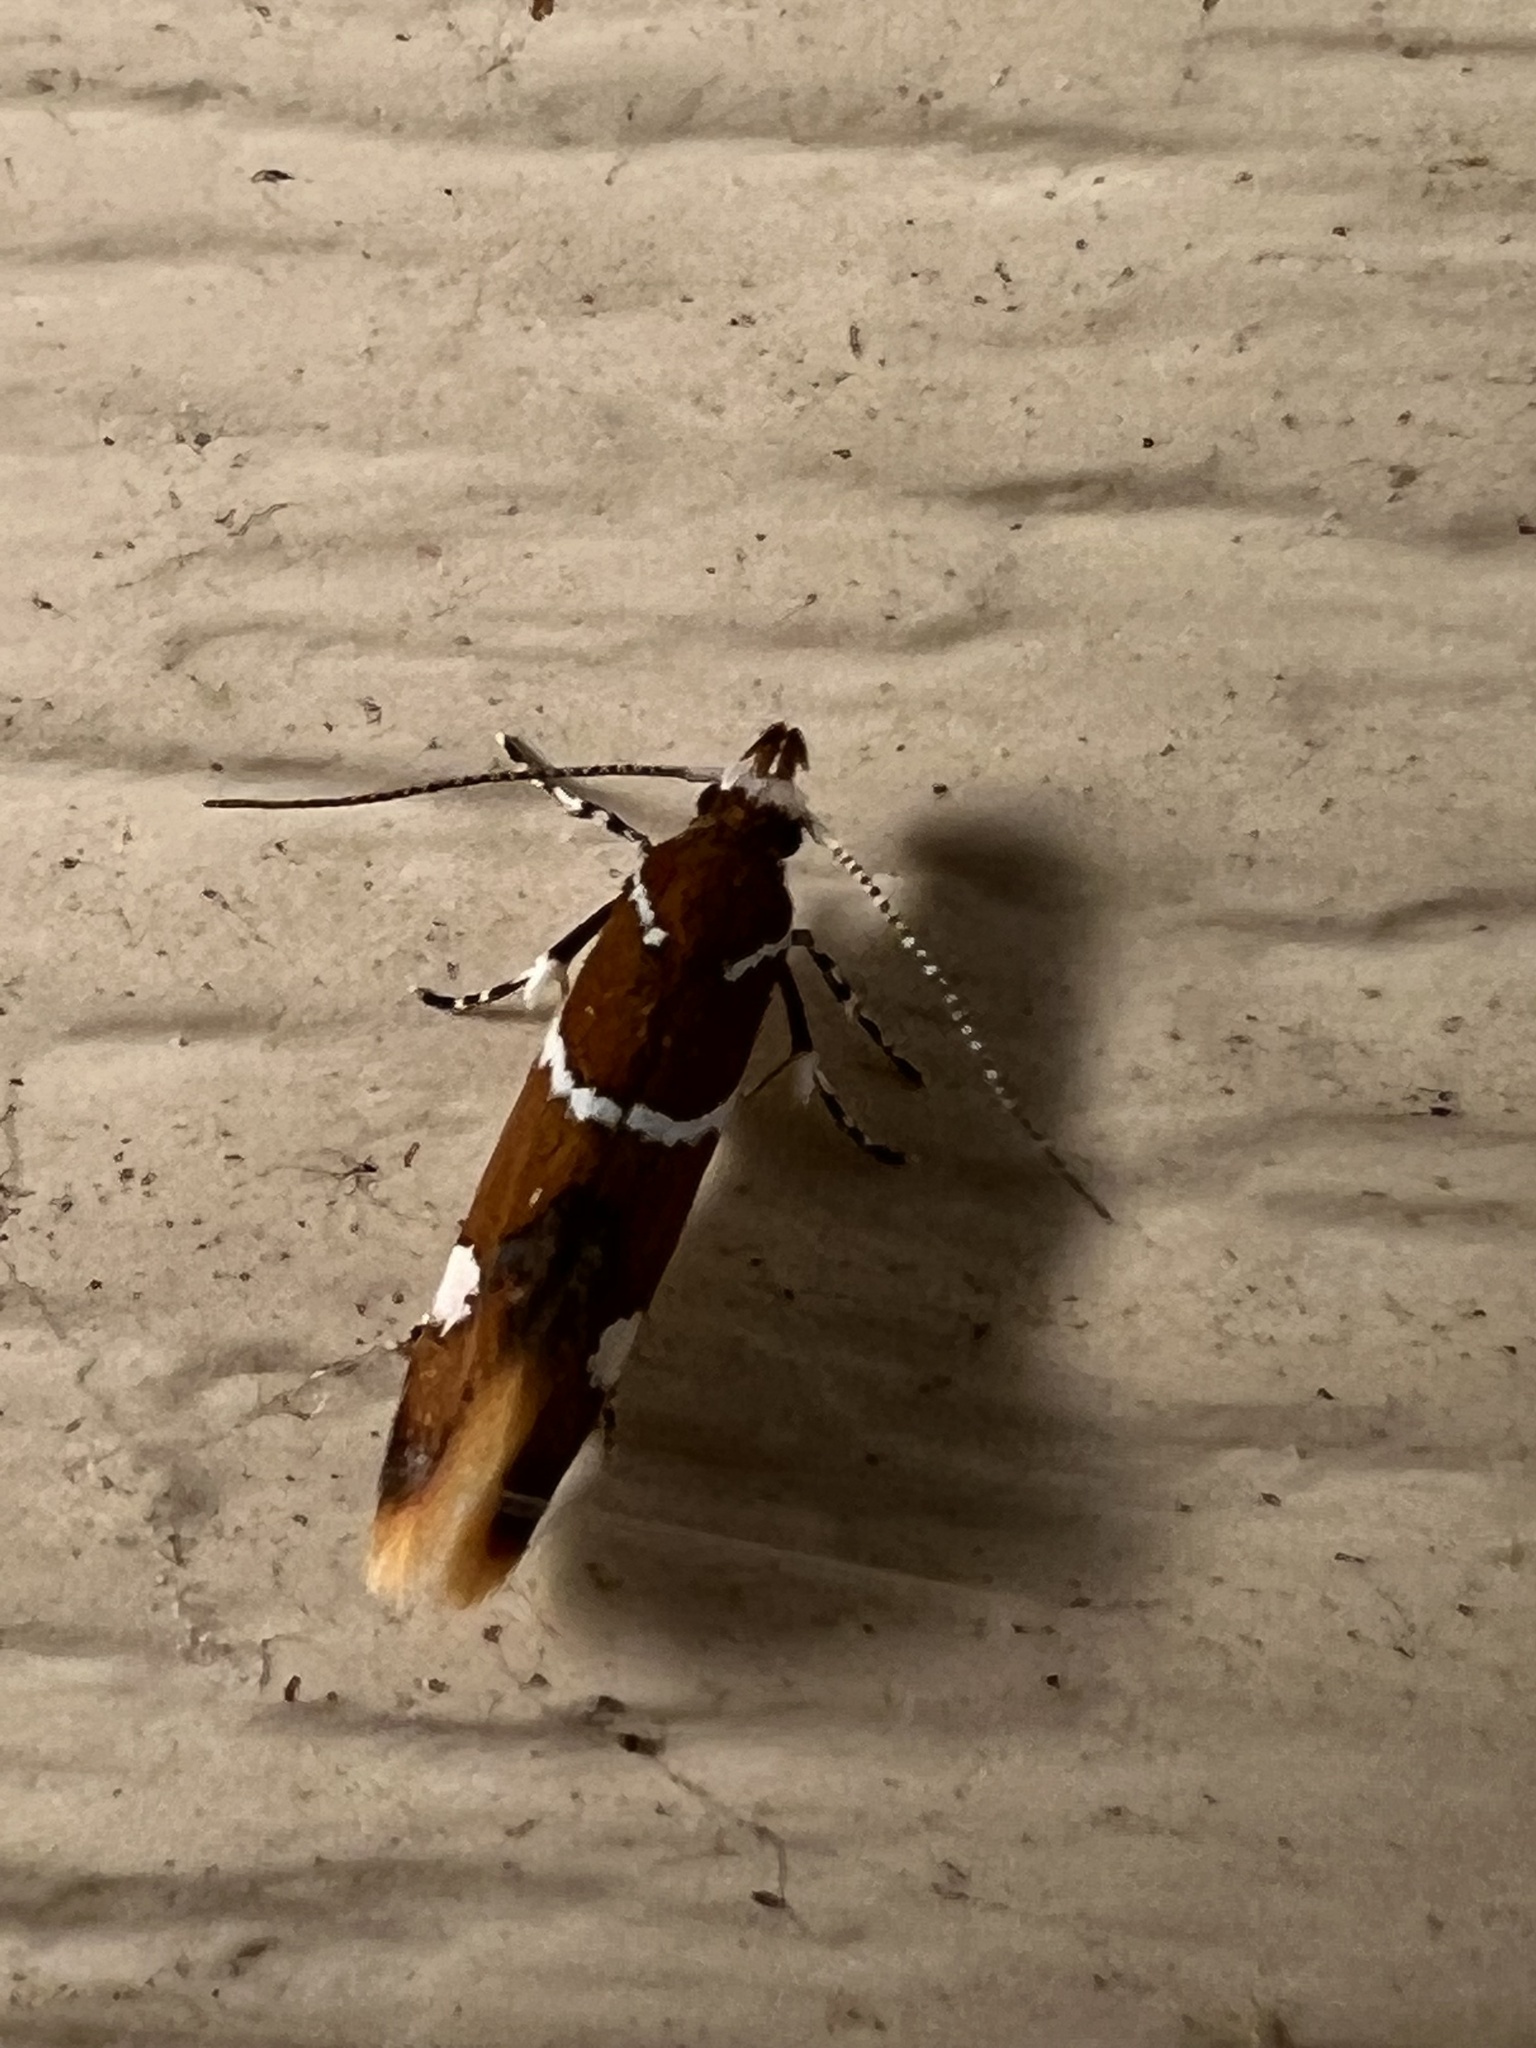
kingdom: Animalia
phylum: Arthropoda
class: Insecta
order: Lepidoptera
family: Oecophoridae
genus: Promalactis
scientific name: Promalactis suzukiella
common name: Moth
